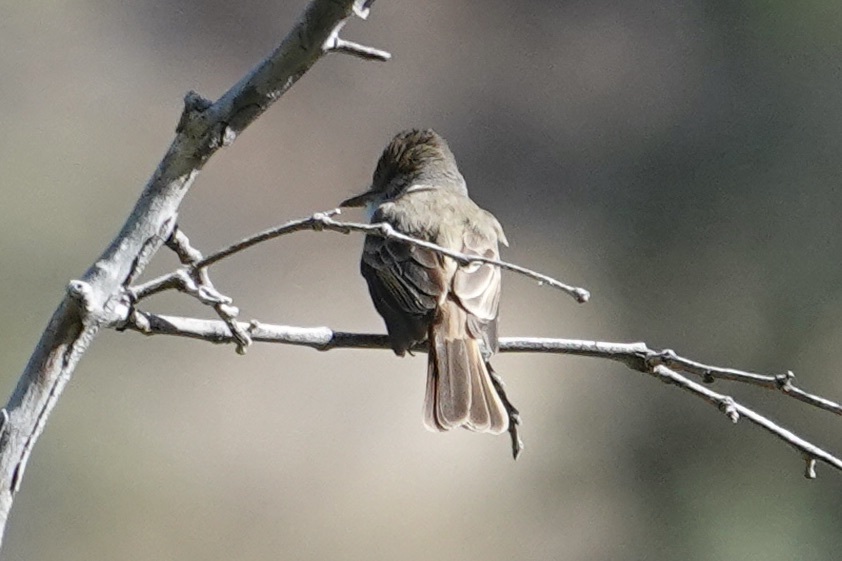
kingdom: Animalia
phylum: Chordata
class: Aves
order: Passeriformes
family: Tyrannidae
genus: Myiarchus
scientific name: Myiarchus tuberculifer
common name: Dusky-capped flycatcher
